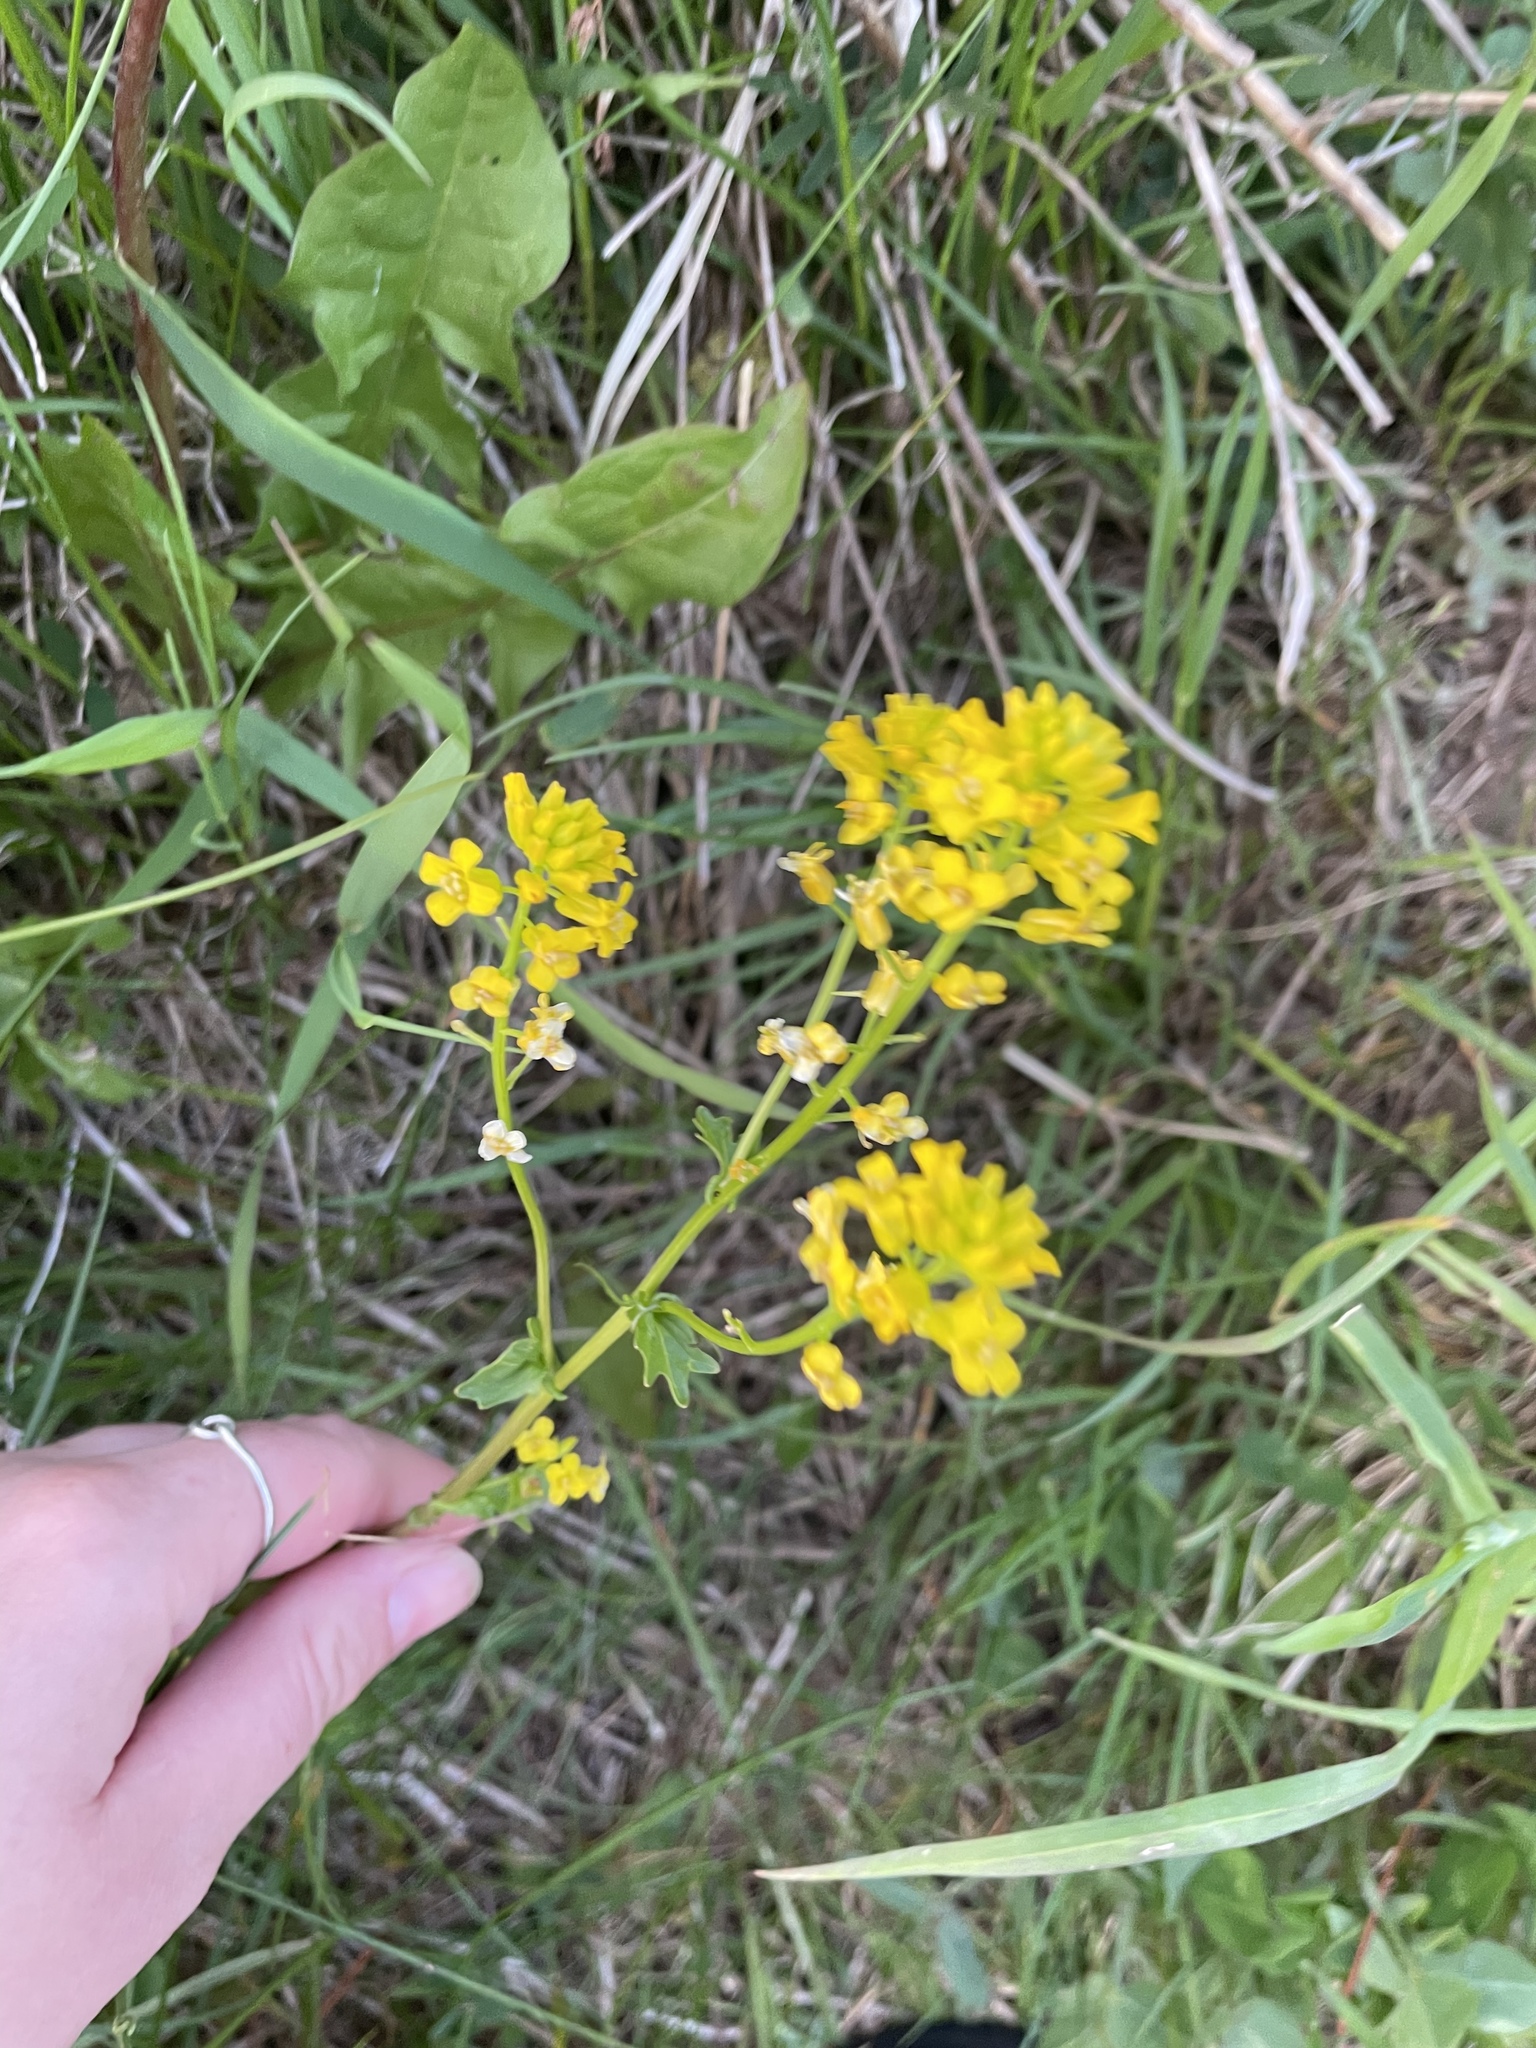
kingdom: Plantae
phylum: Tracheophyta
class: Magnoliopsida
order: Brassicales
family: Brassicaceae
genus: Barbarea
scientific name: Barbarea vulgaris
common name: Cressy-greens
